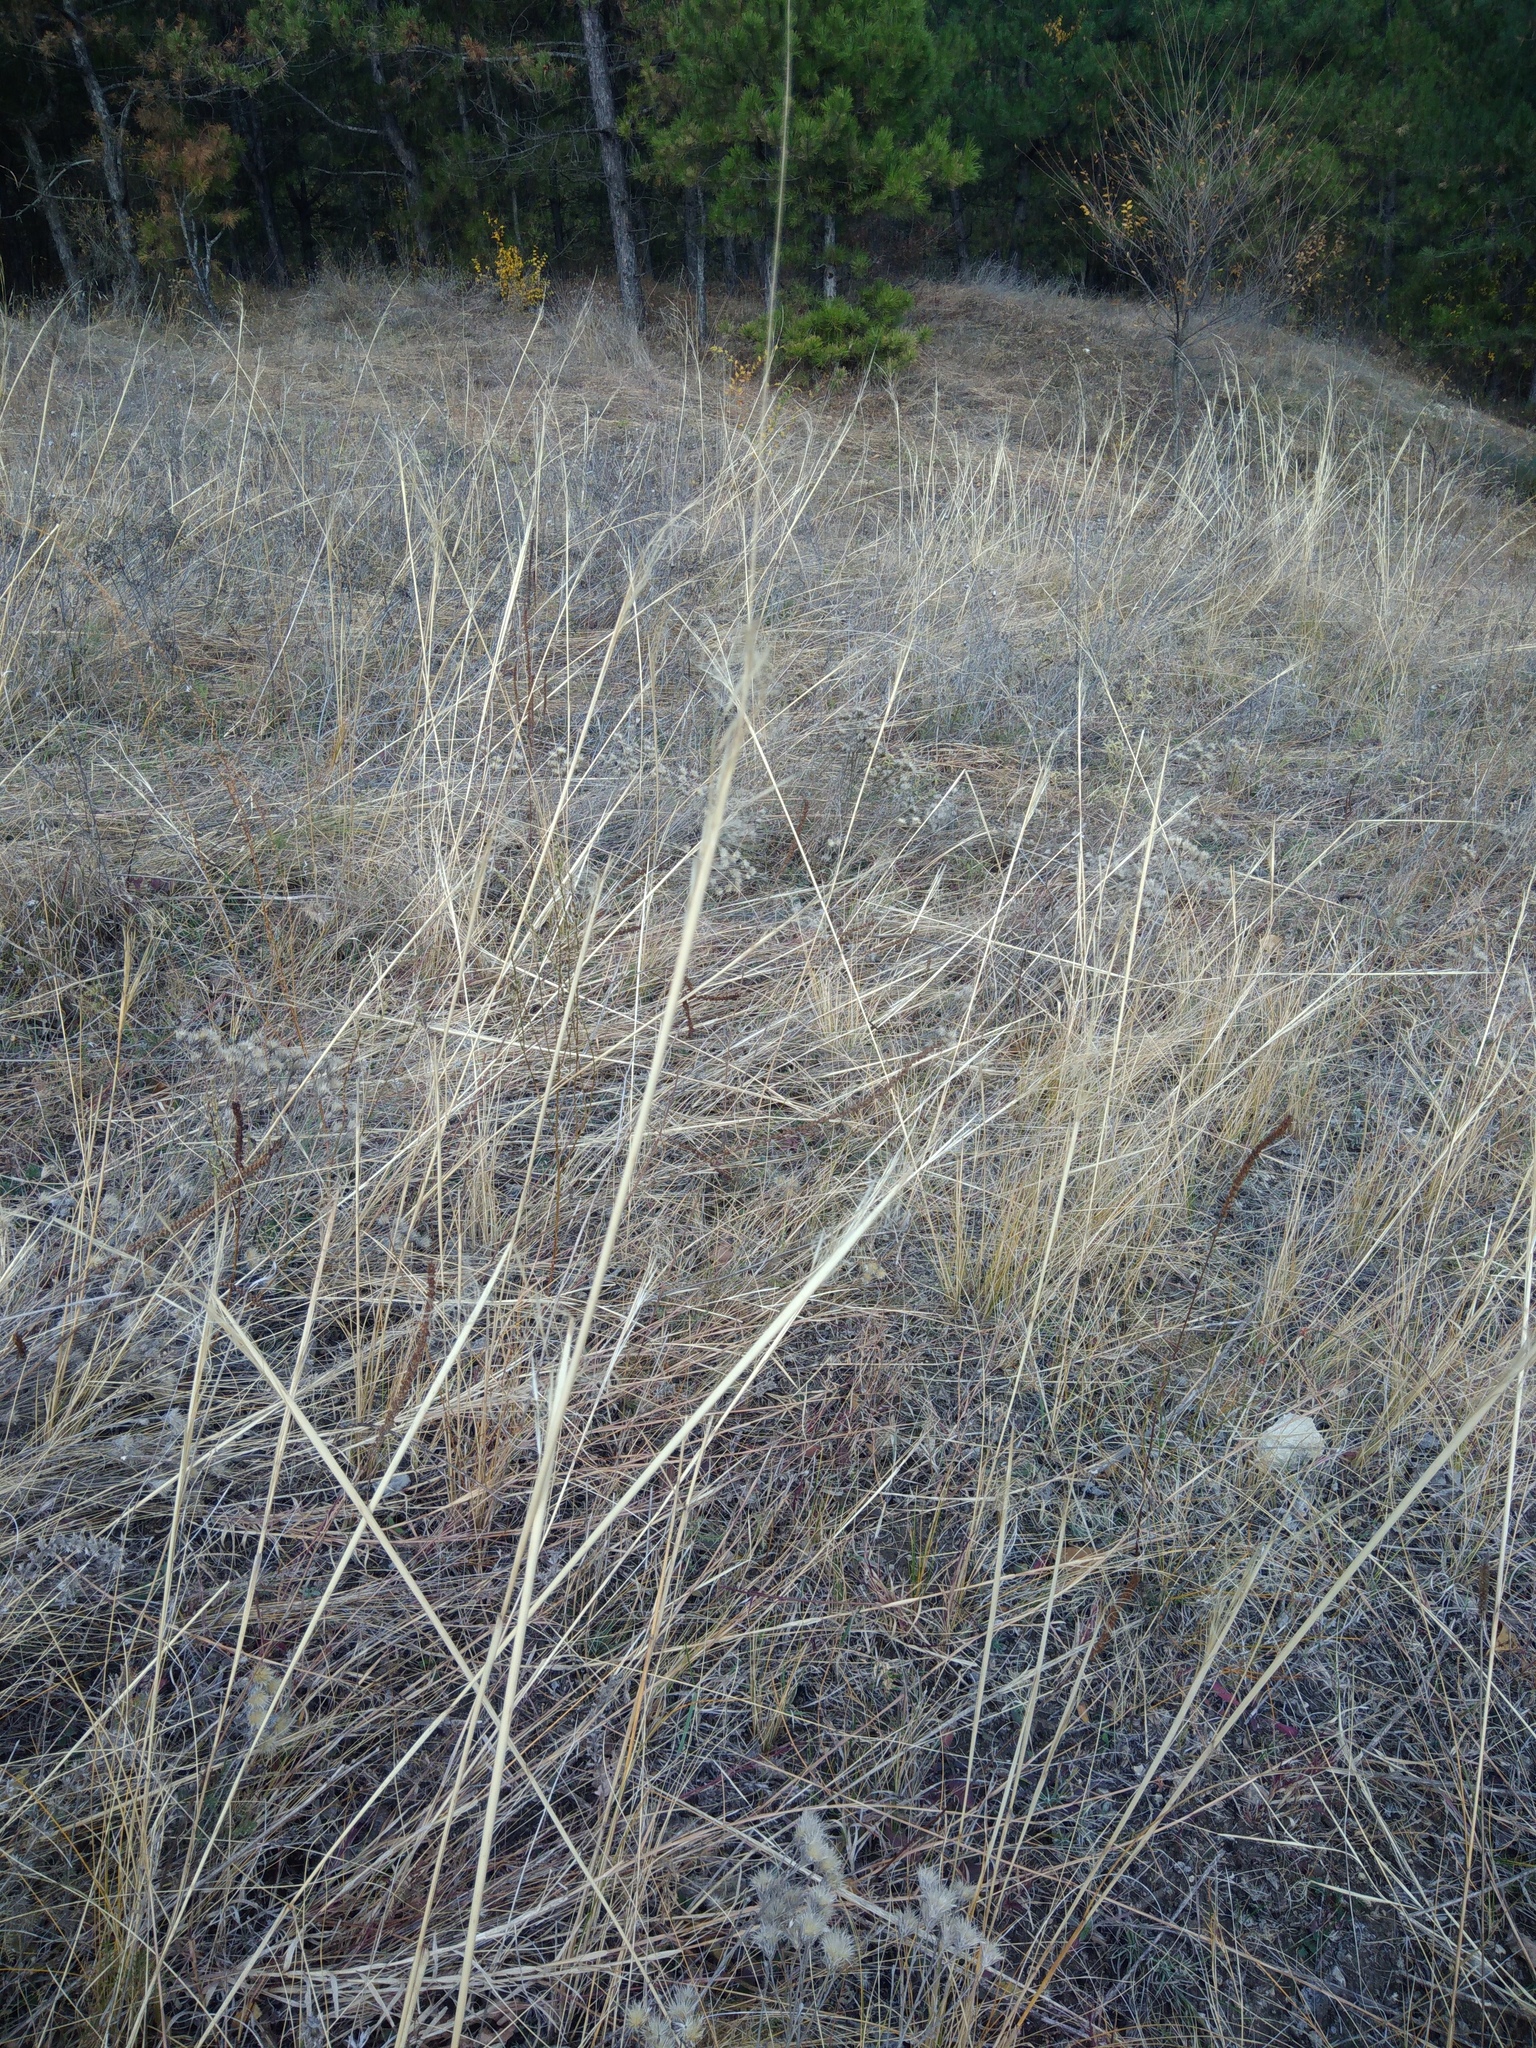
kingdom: Plantae
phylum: Tracheophyta
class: Liliopsida
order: Poales
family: Poaceae
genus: Stipa
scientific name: Stipa capillata
